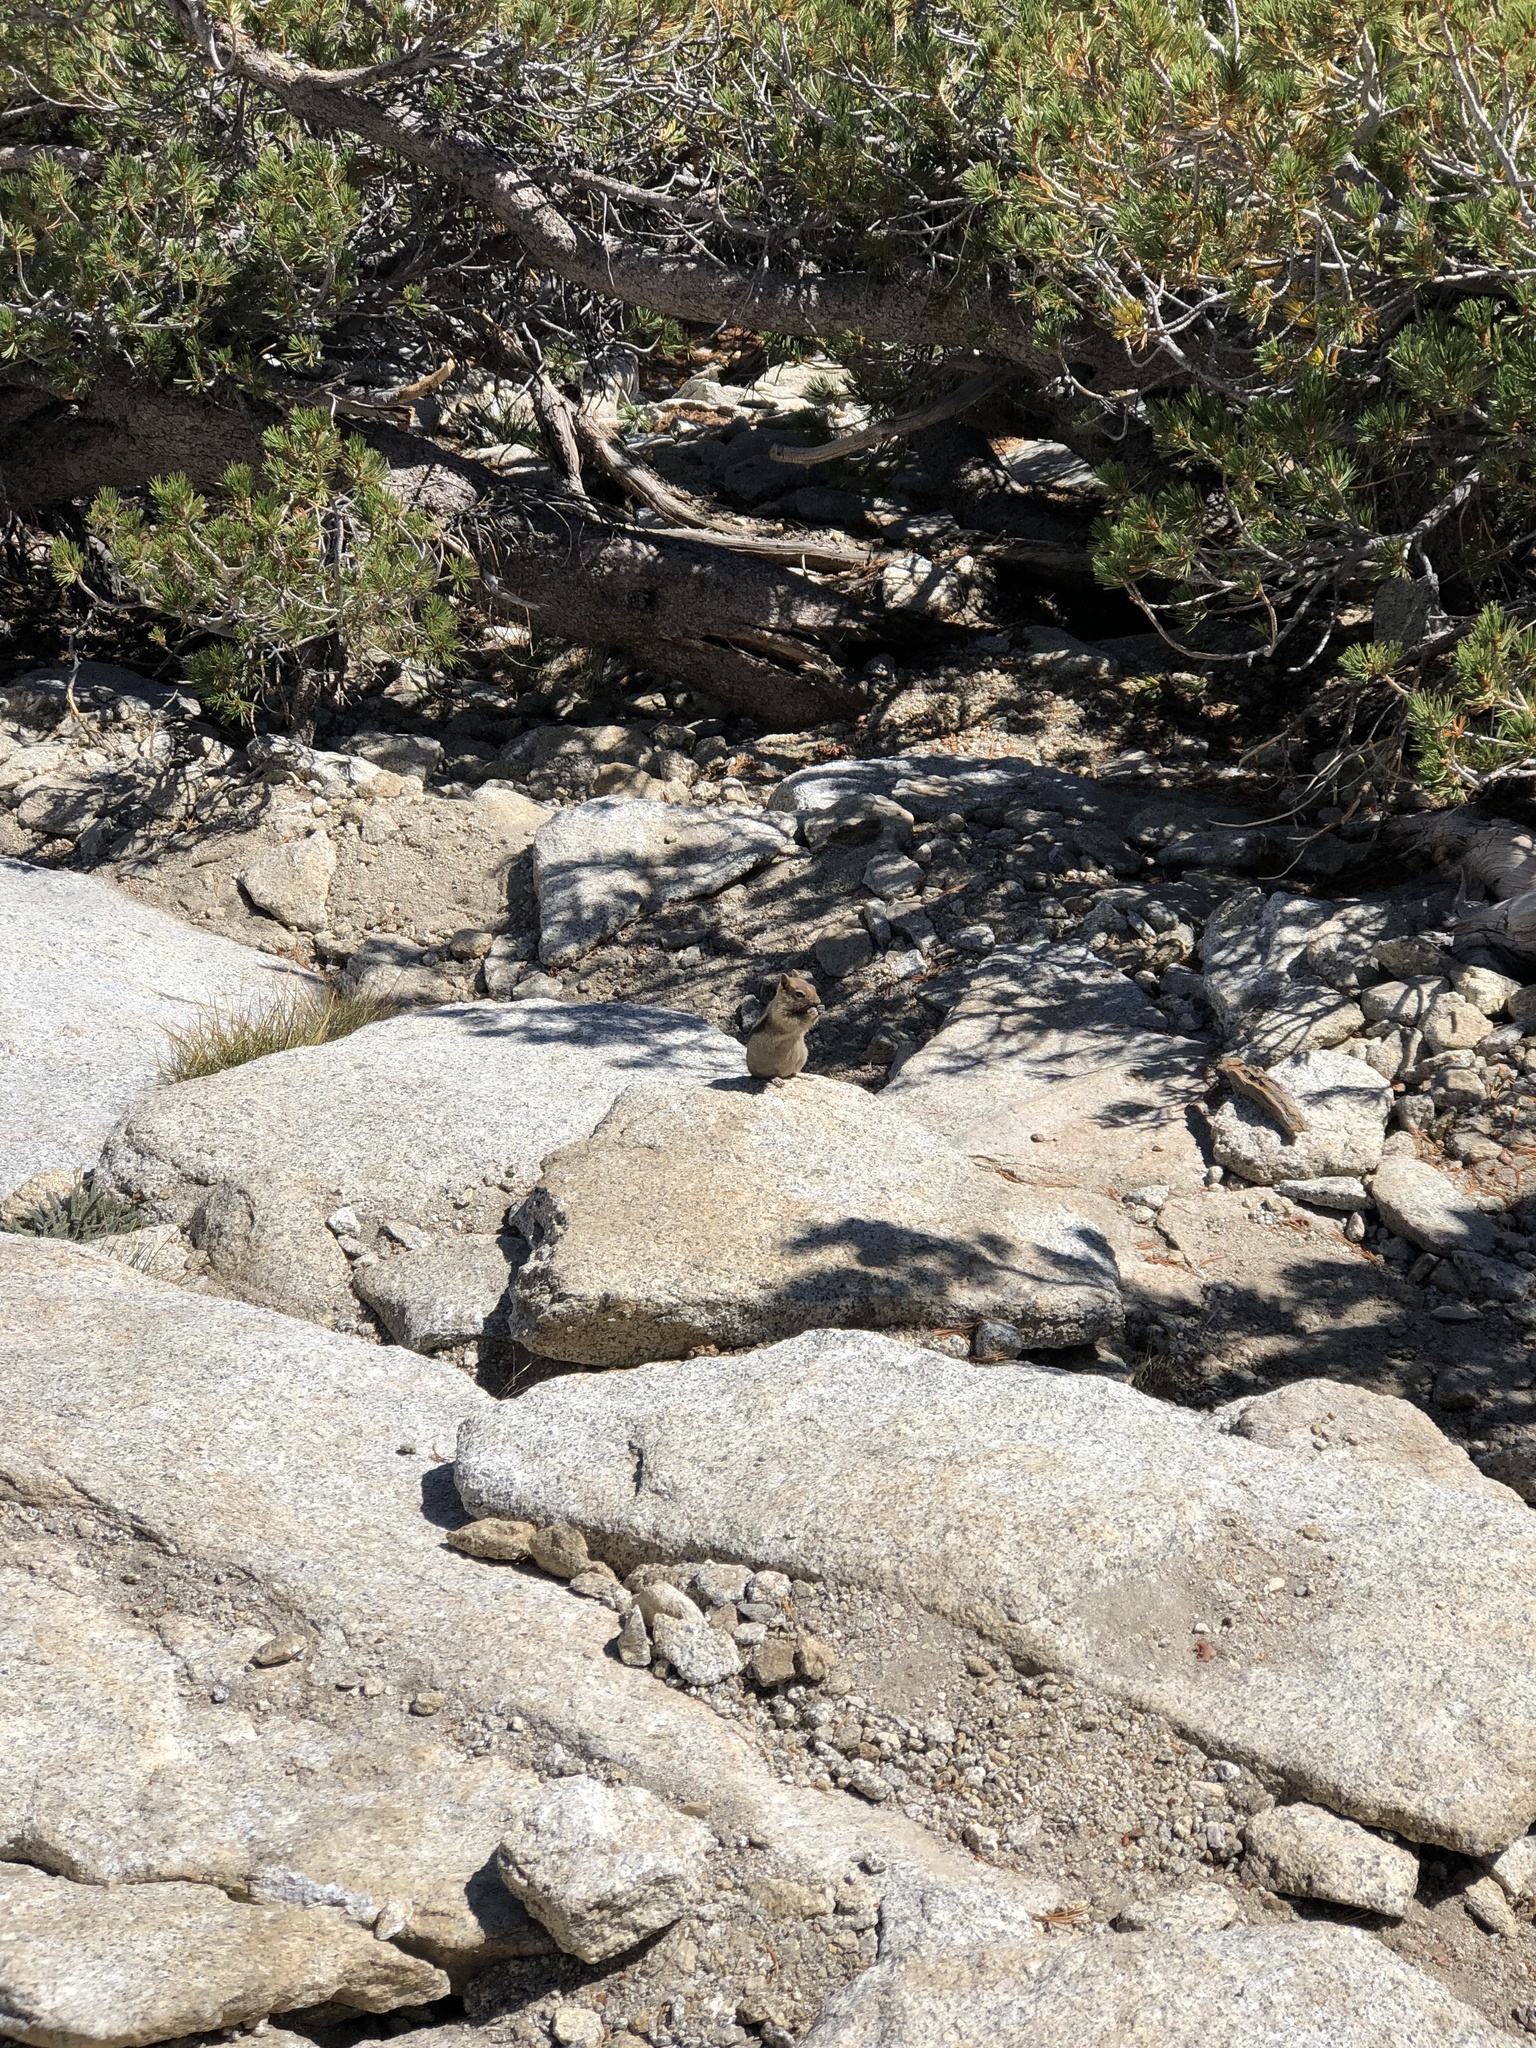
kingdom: Animalia
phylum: Chordata
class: Mammalia
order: Rodentia
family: Sciuridae
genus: Callospermophilus
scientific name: Callospermophilus lateralis
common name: Golden-mantled ground squirrel
